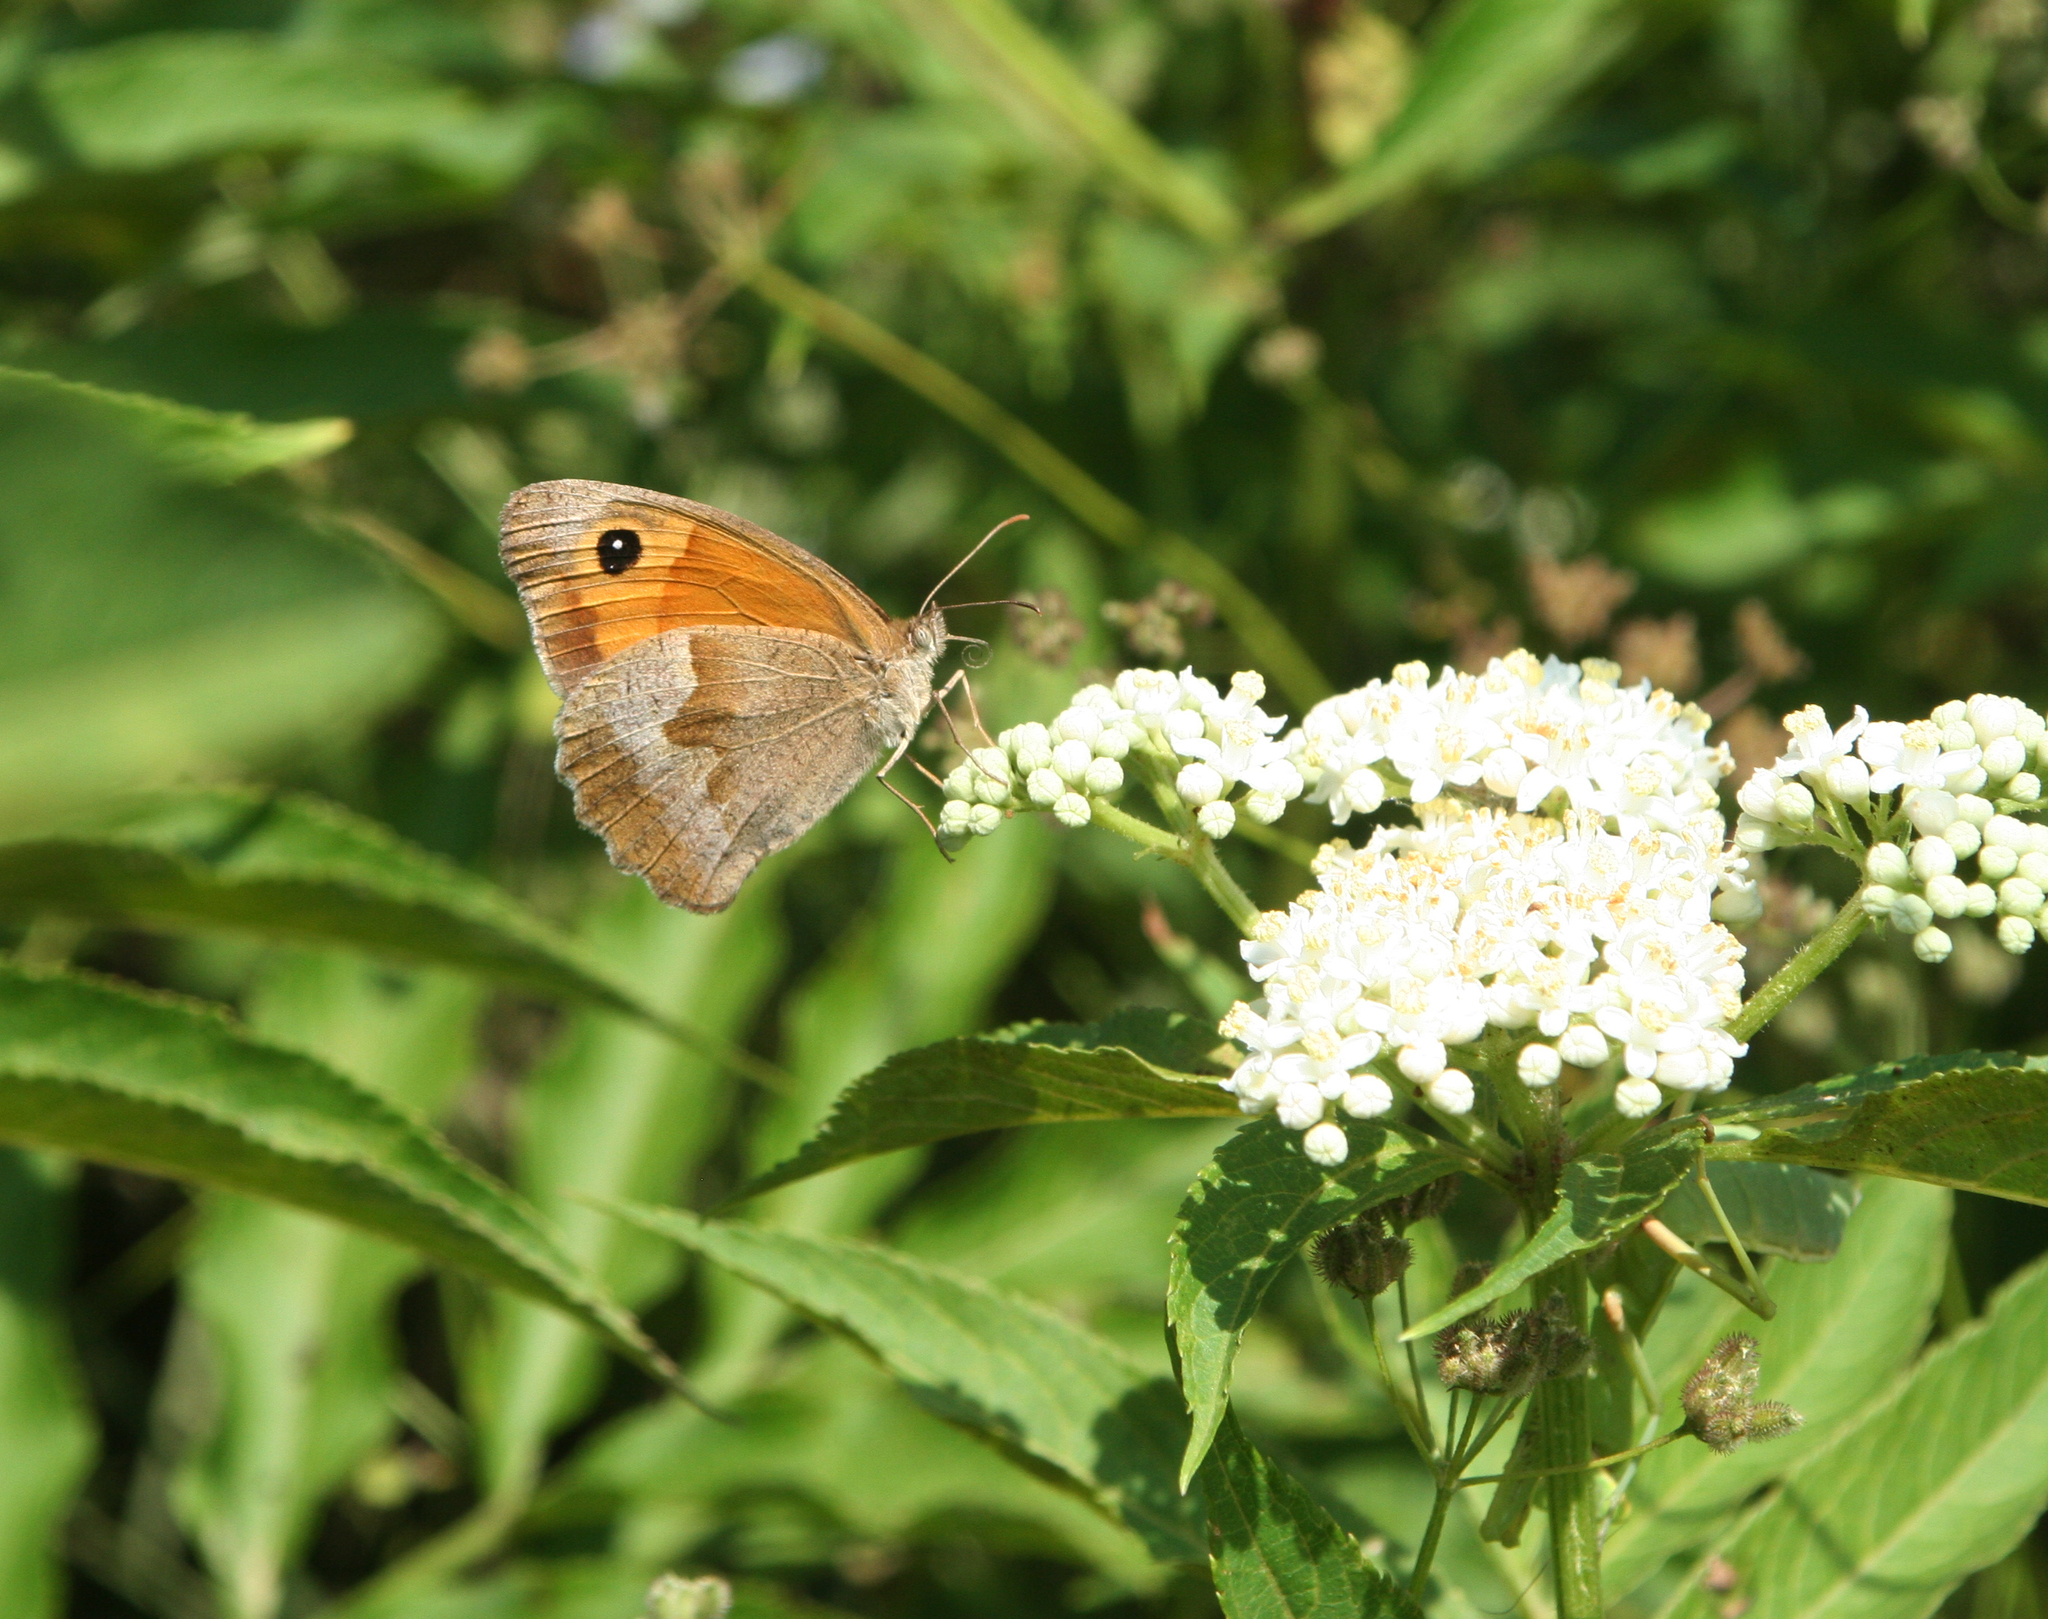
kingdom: Animalia
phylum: Arthropoda
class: Insecta
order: Lepidoptera
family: Nymphalidae
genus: Maniola
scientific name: Maniola jurtina
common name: Meadow brown
